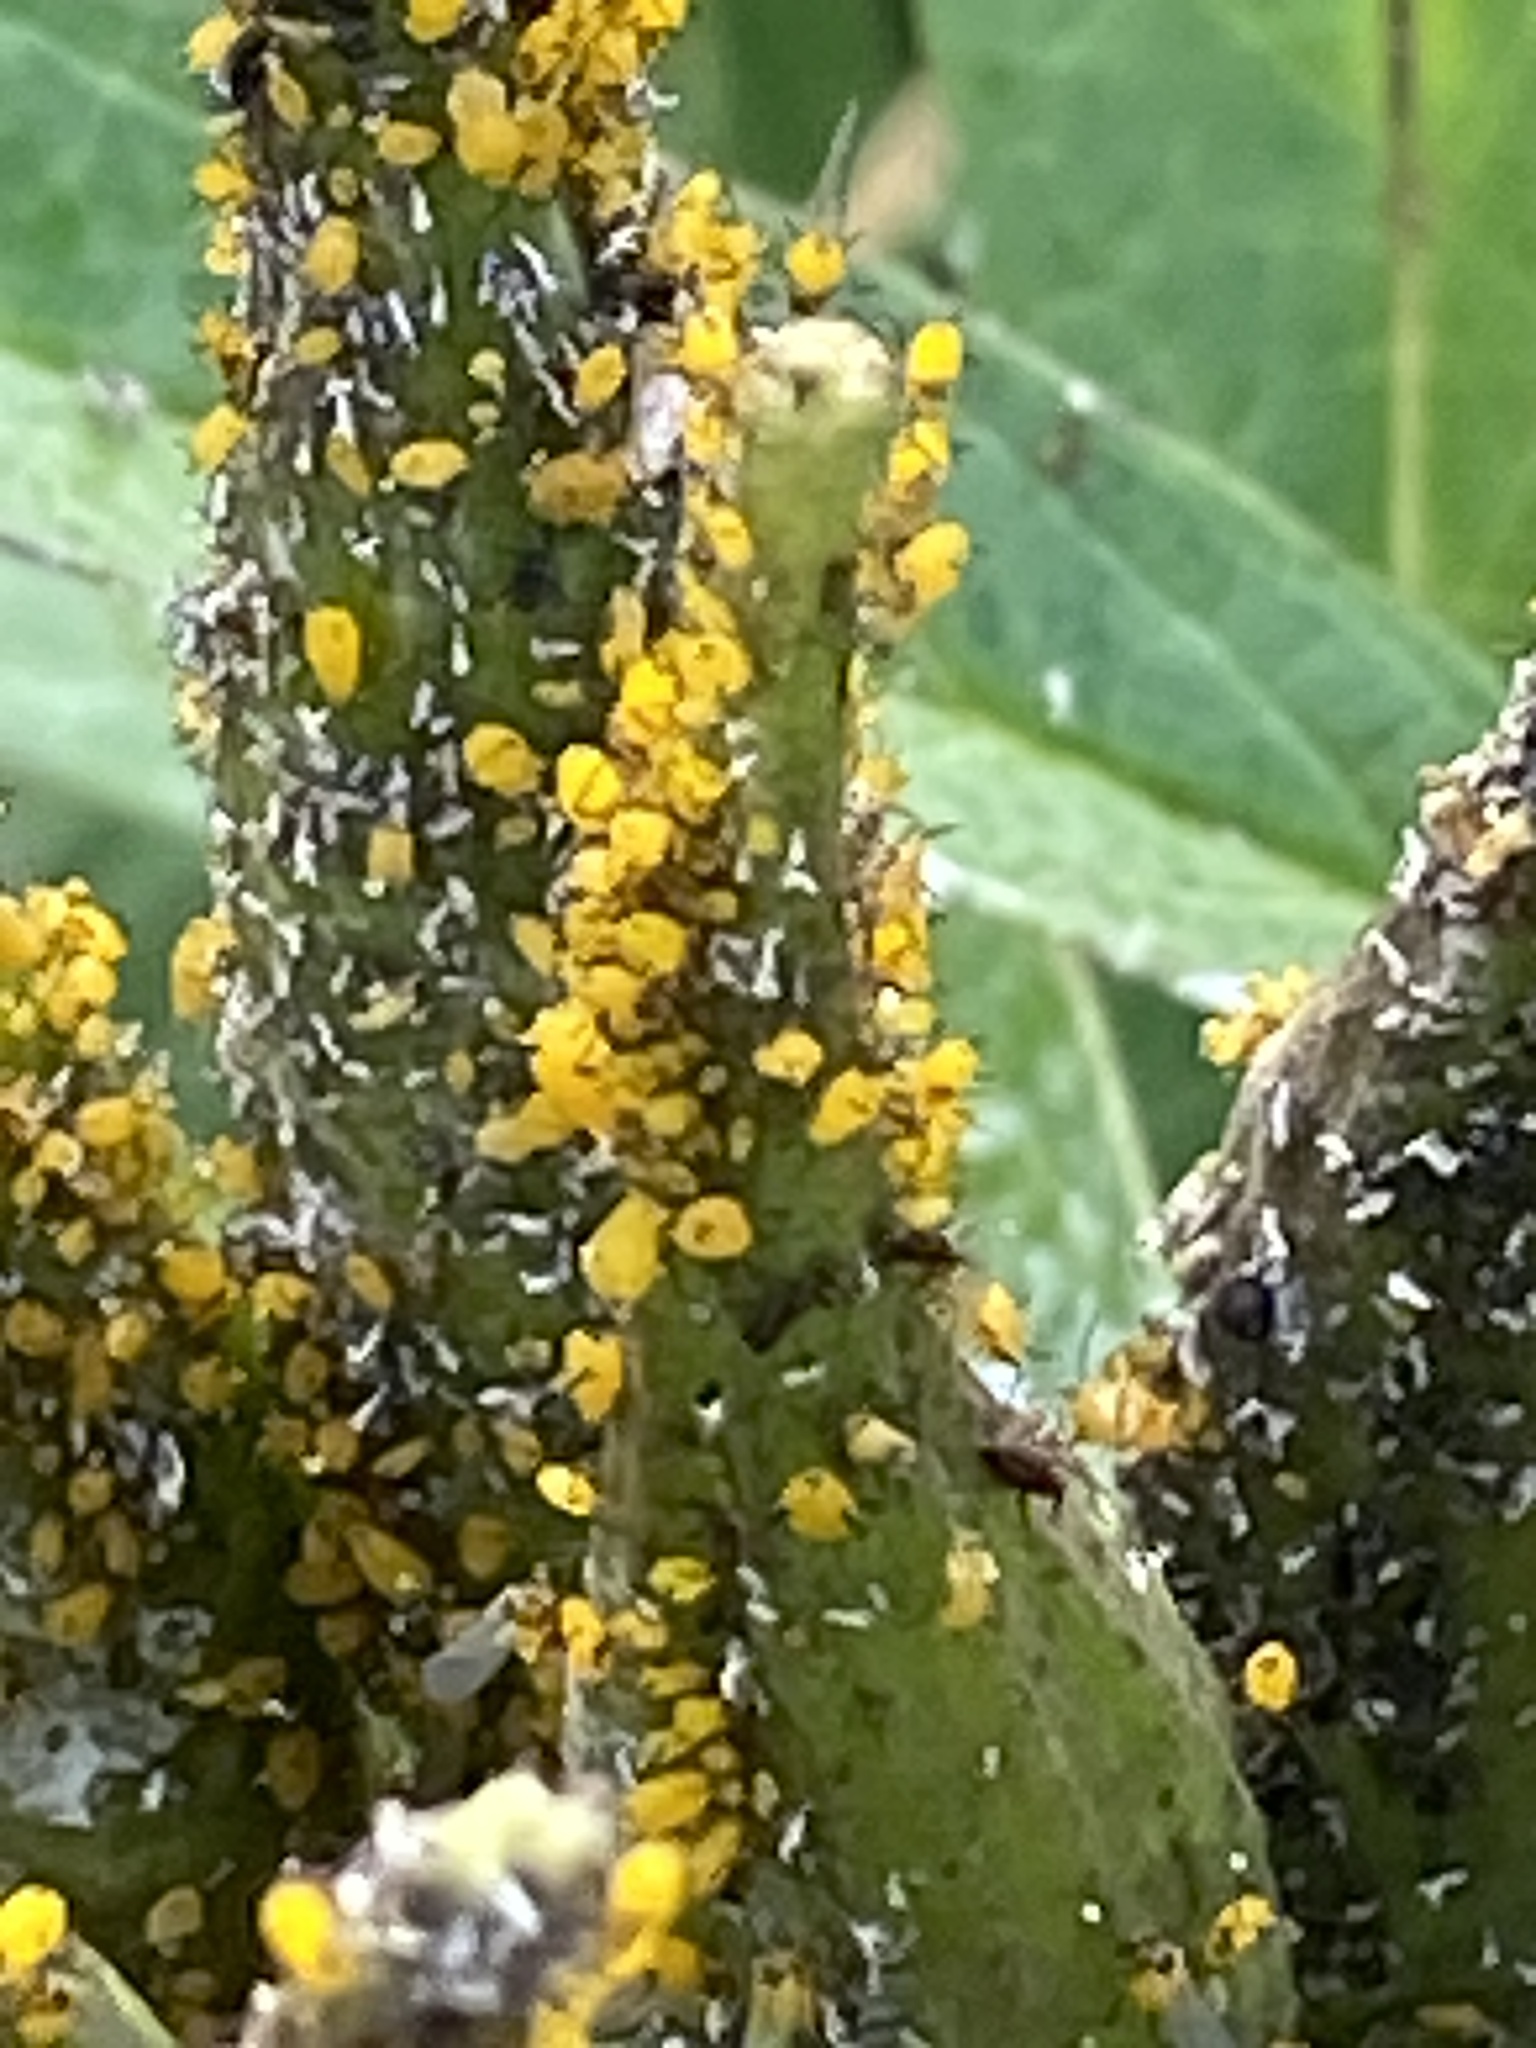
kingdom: Animalia
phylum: Arthropoda
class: Insecta
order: Hemiptera
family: Aphididae
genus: Aphis
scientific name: Aphis nerii
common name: Oleander aphid
